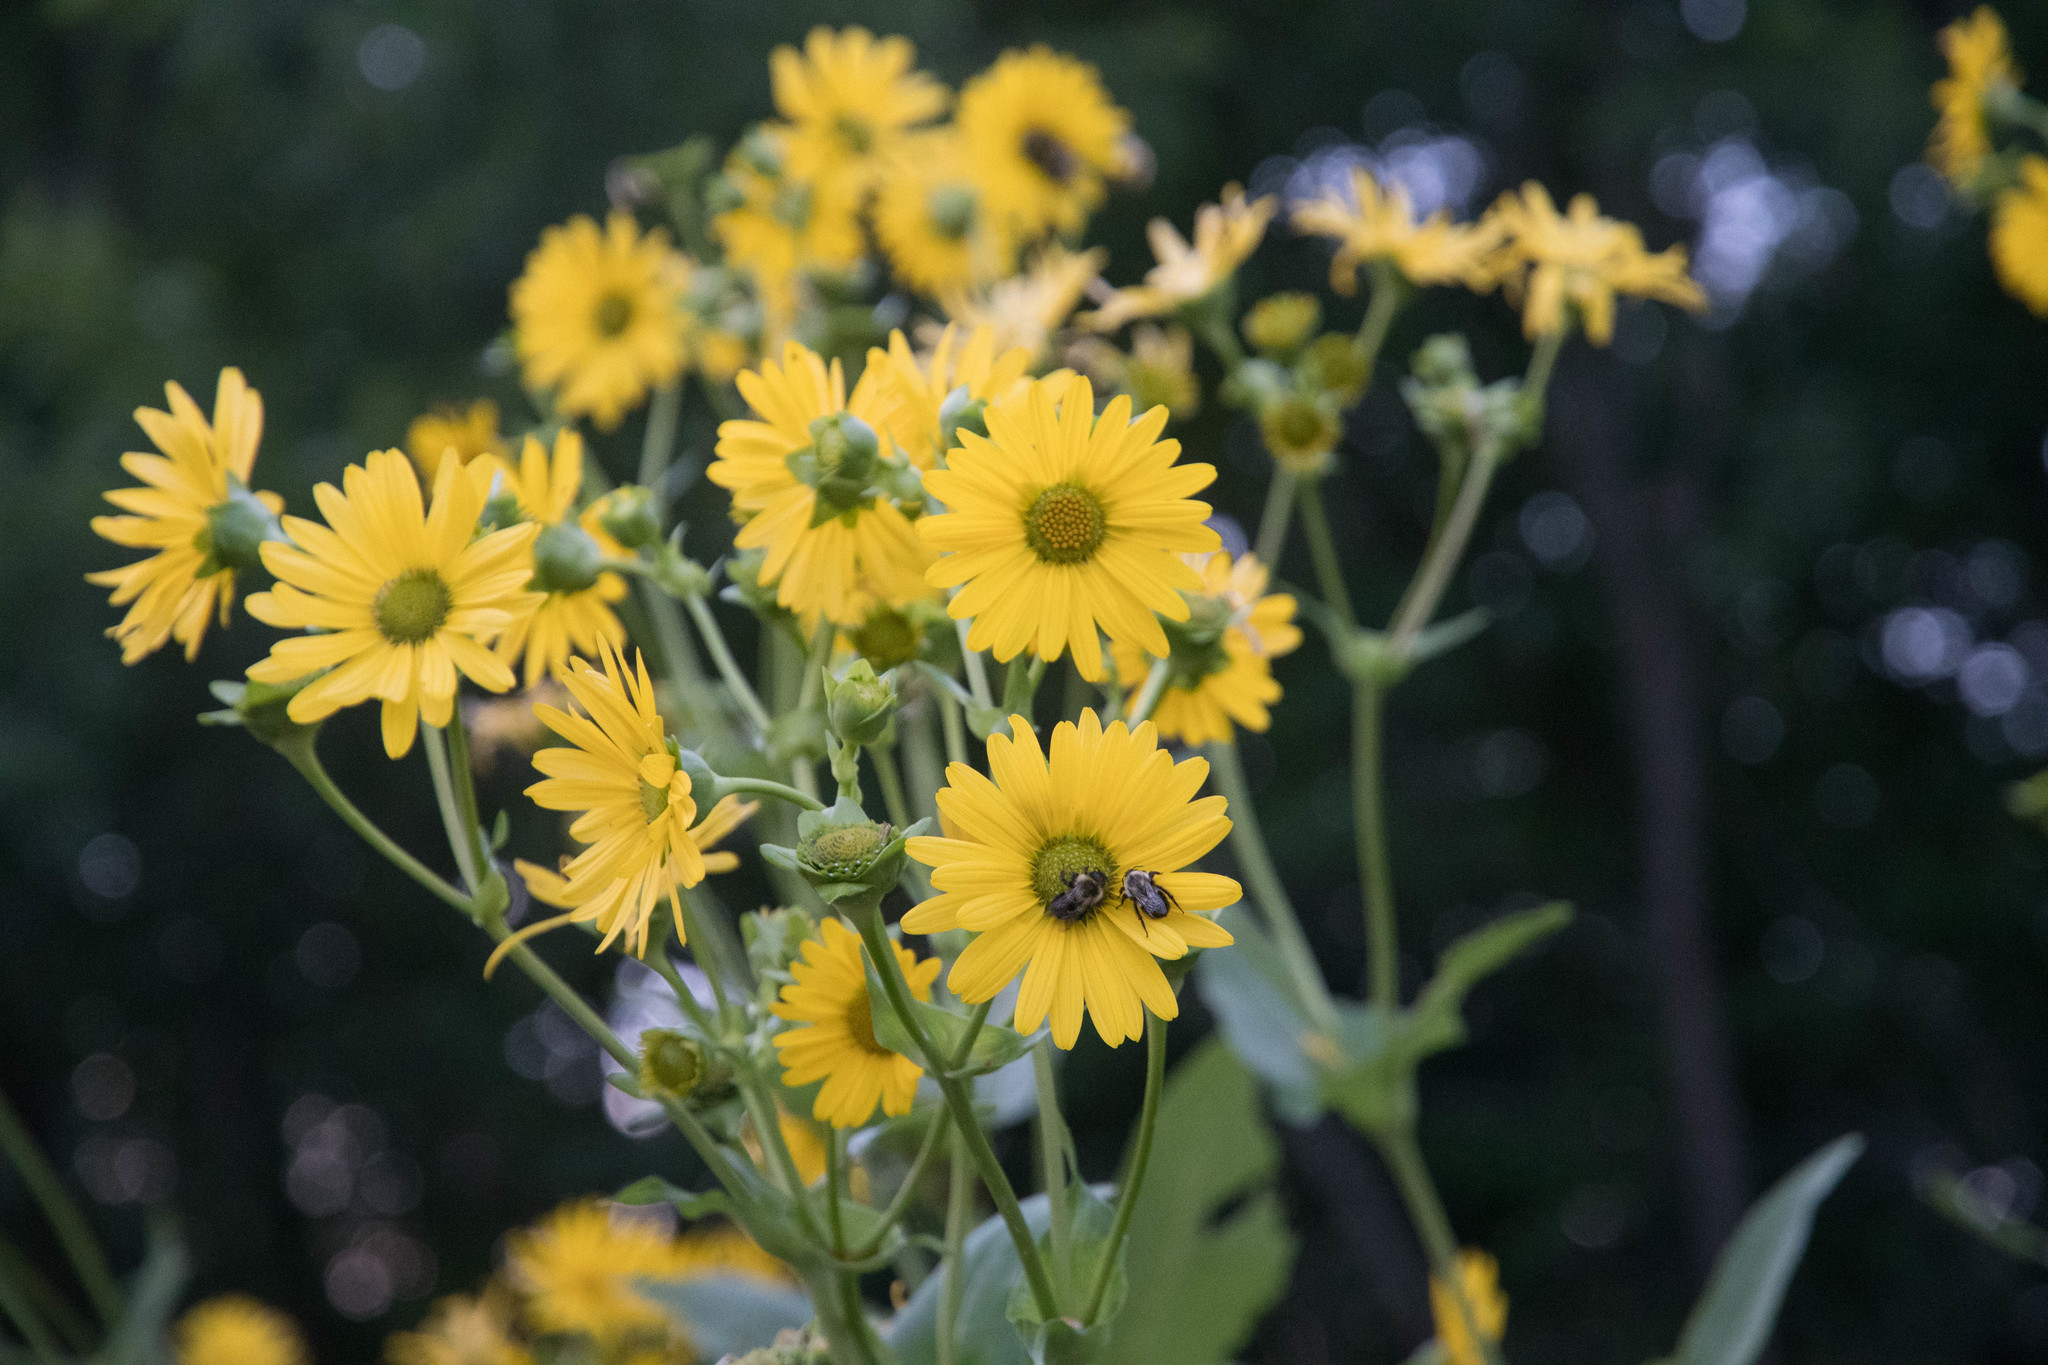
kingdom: Plantae
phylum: Tracheophyta
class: Magnoliopsida
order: Asterales
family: Asteraceae
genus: Silphium
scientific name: Silphium perfoliatum
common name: Cup-plant
